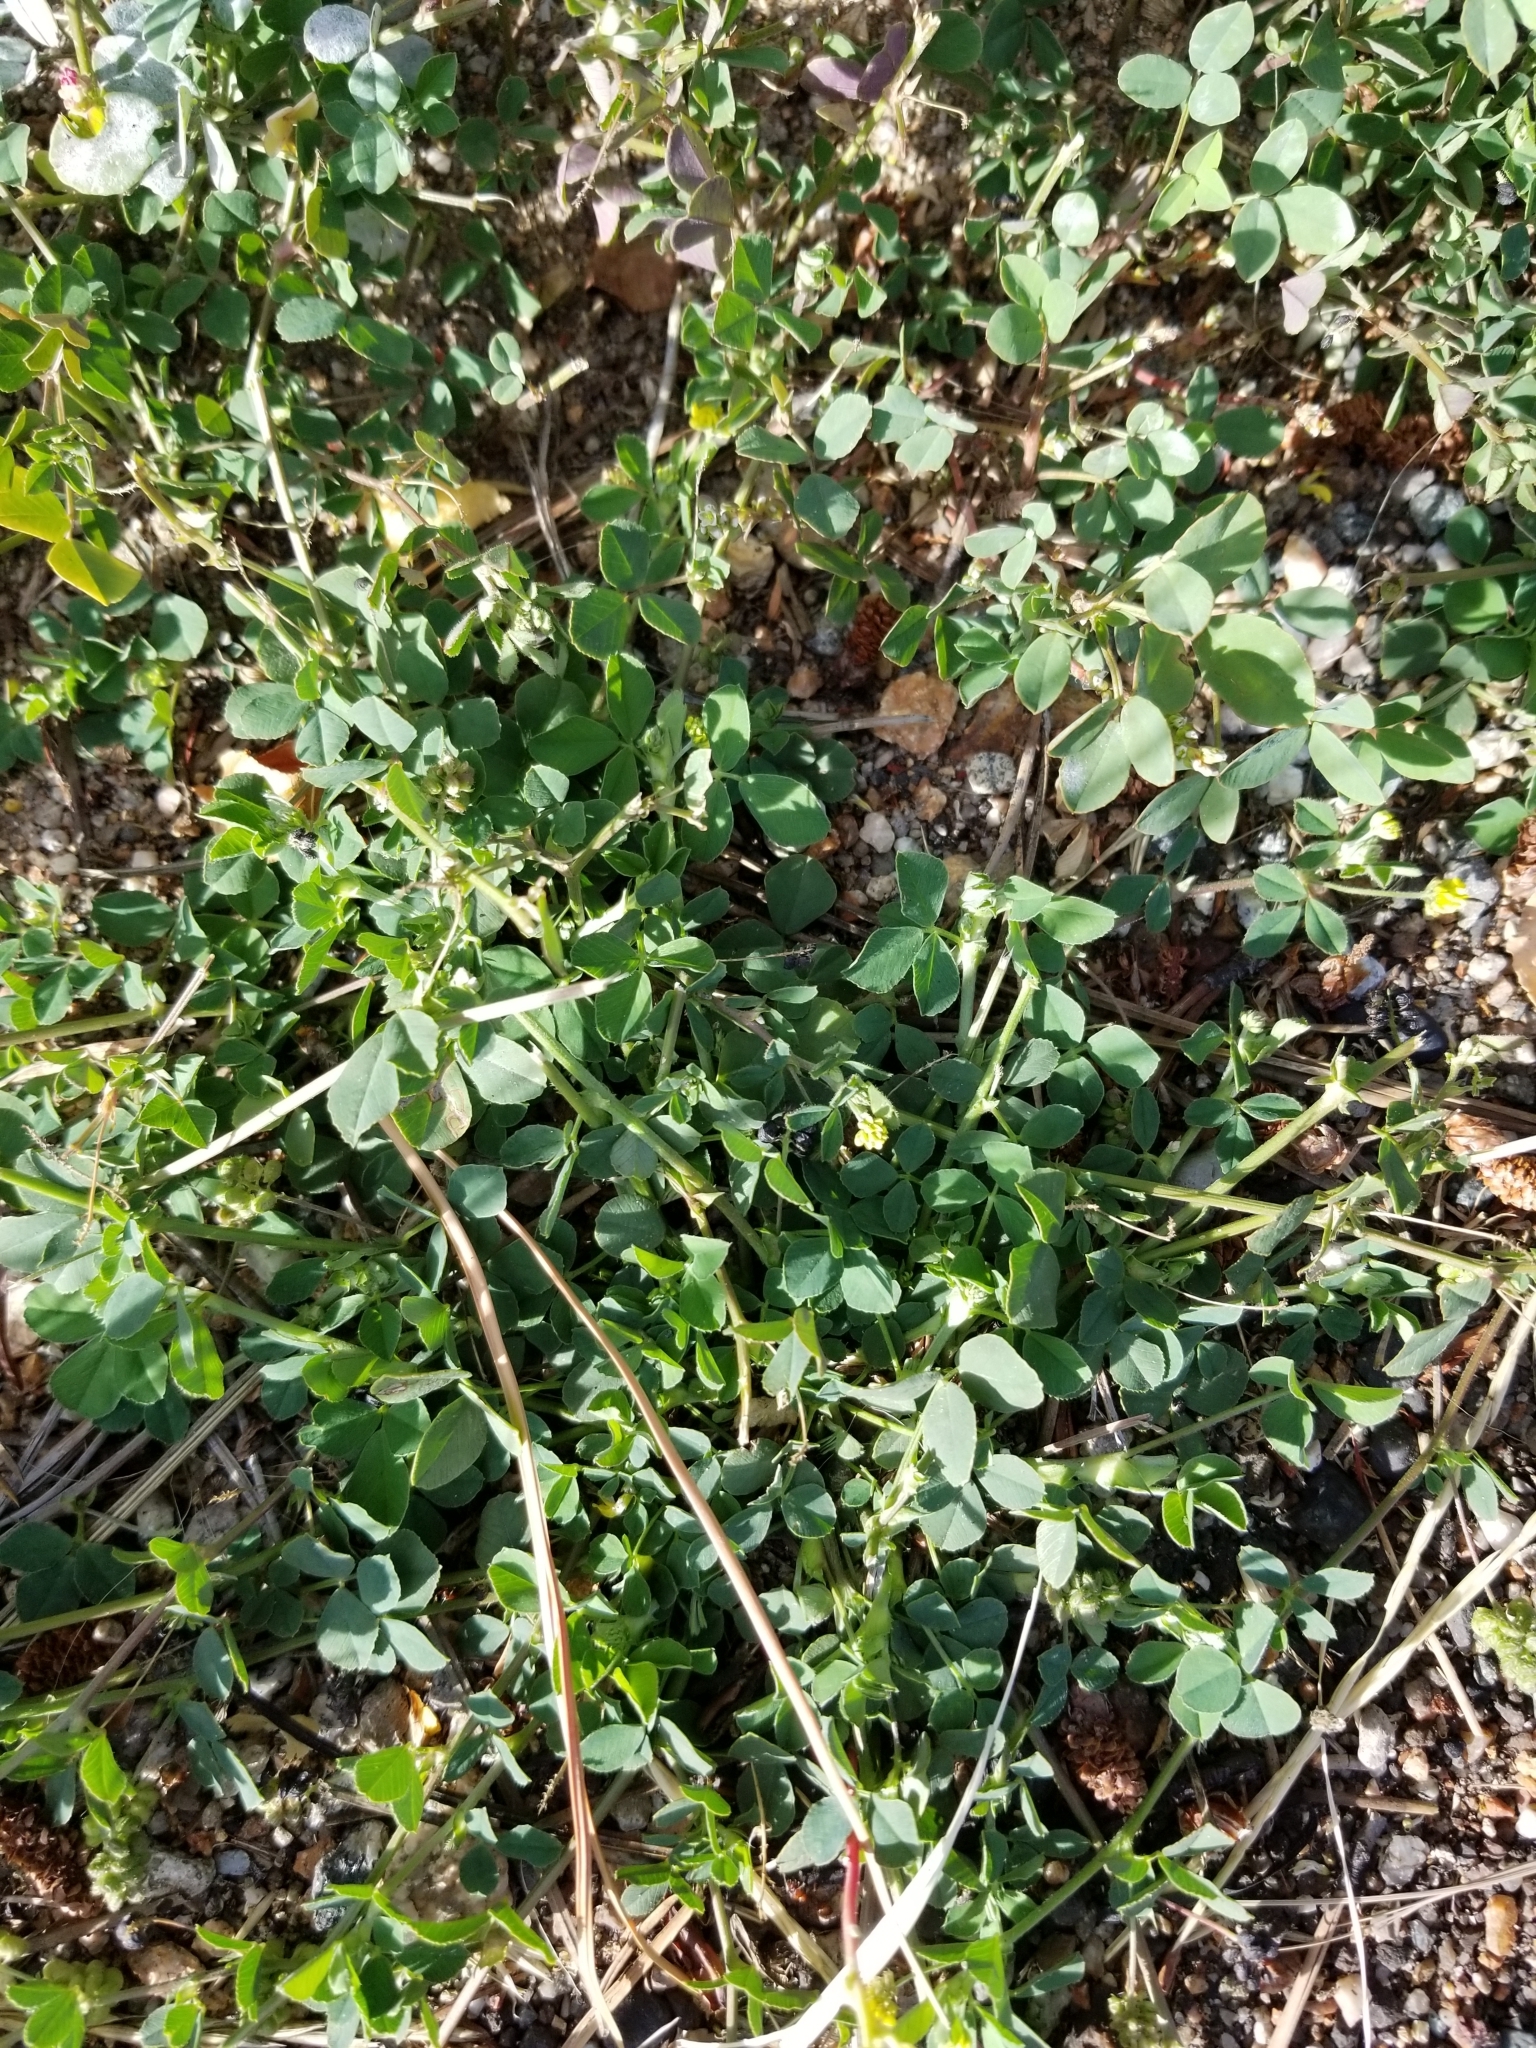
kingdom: Plantae
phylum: Tracheophyta
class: Magnoliopsida
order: Fabales
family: Fabaceae
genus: Medicago
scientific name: Medicago lupulina
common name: Black medick
